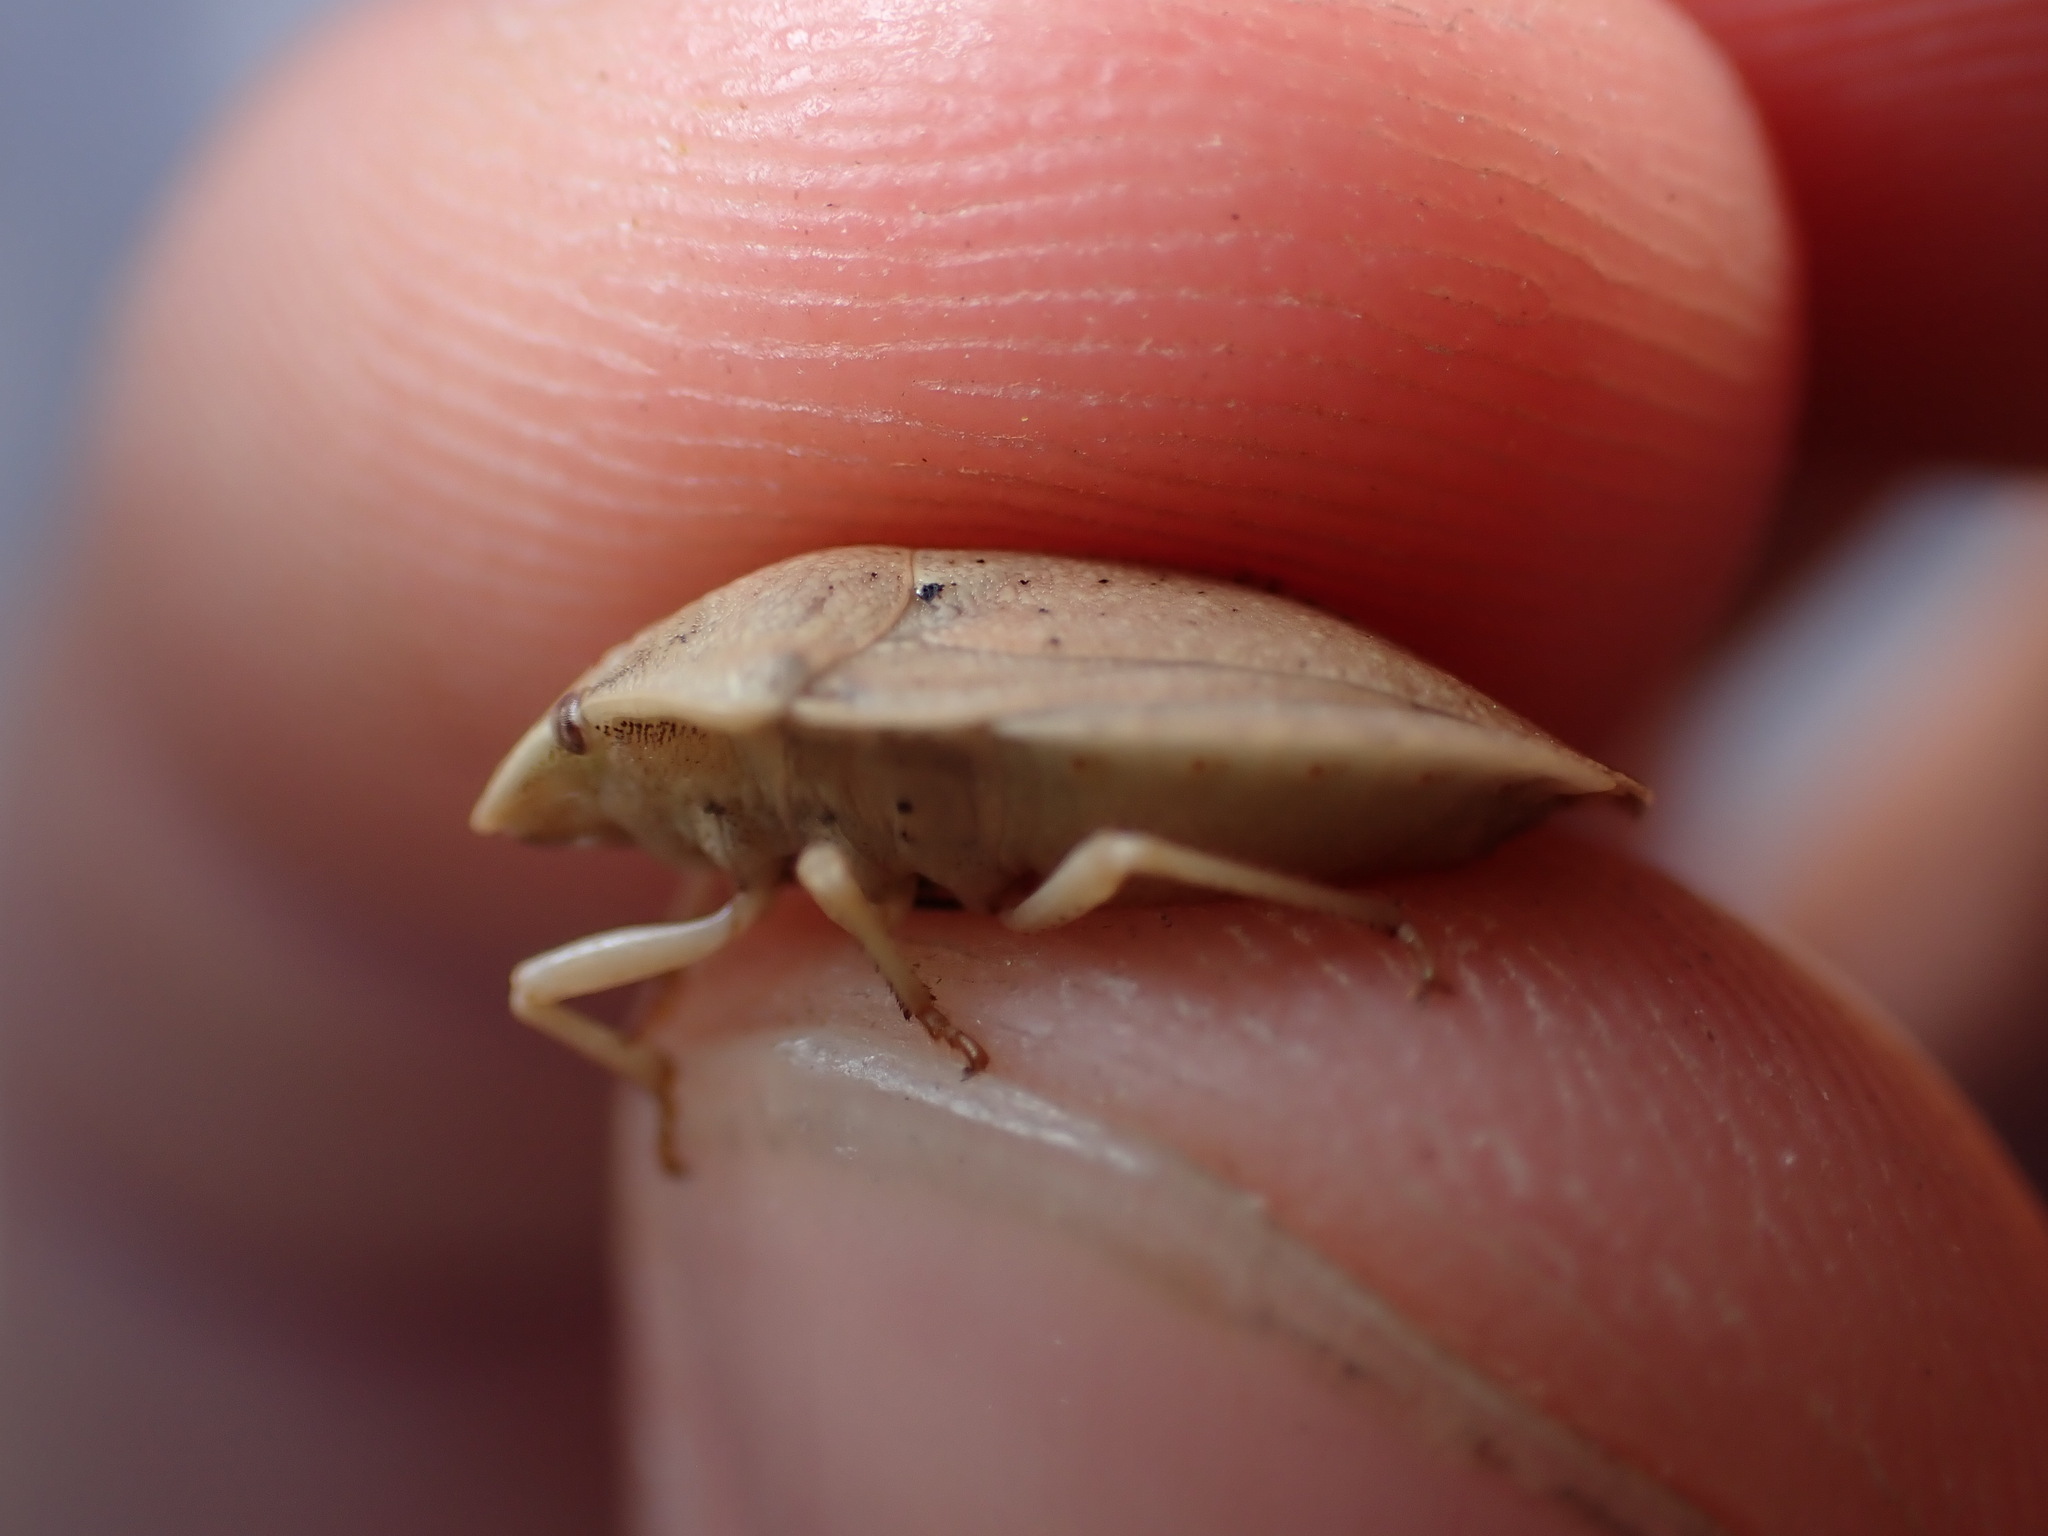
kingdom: Animalia
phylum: Arthropoda
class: Insecta
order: Hemiptera
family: Scutelleridae
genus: Eurygaster
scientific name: Eurygaster austriaca
